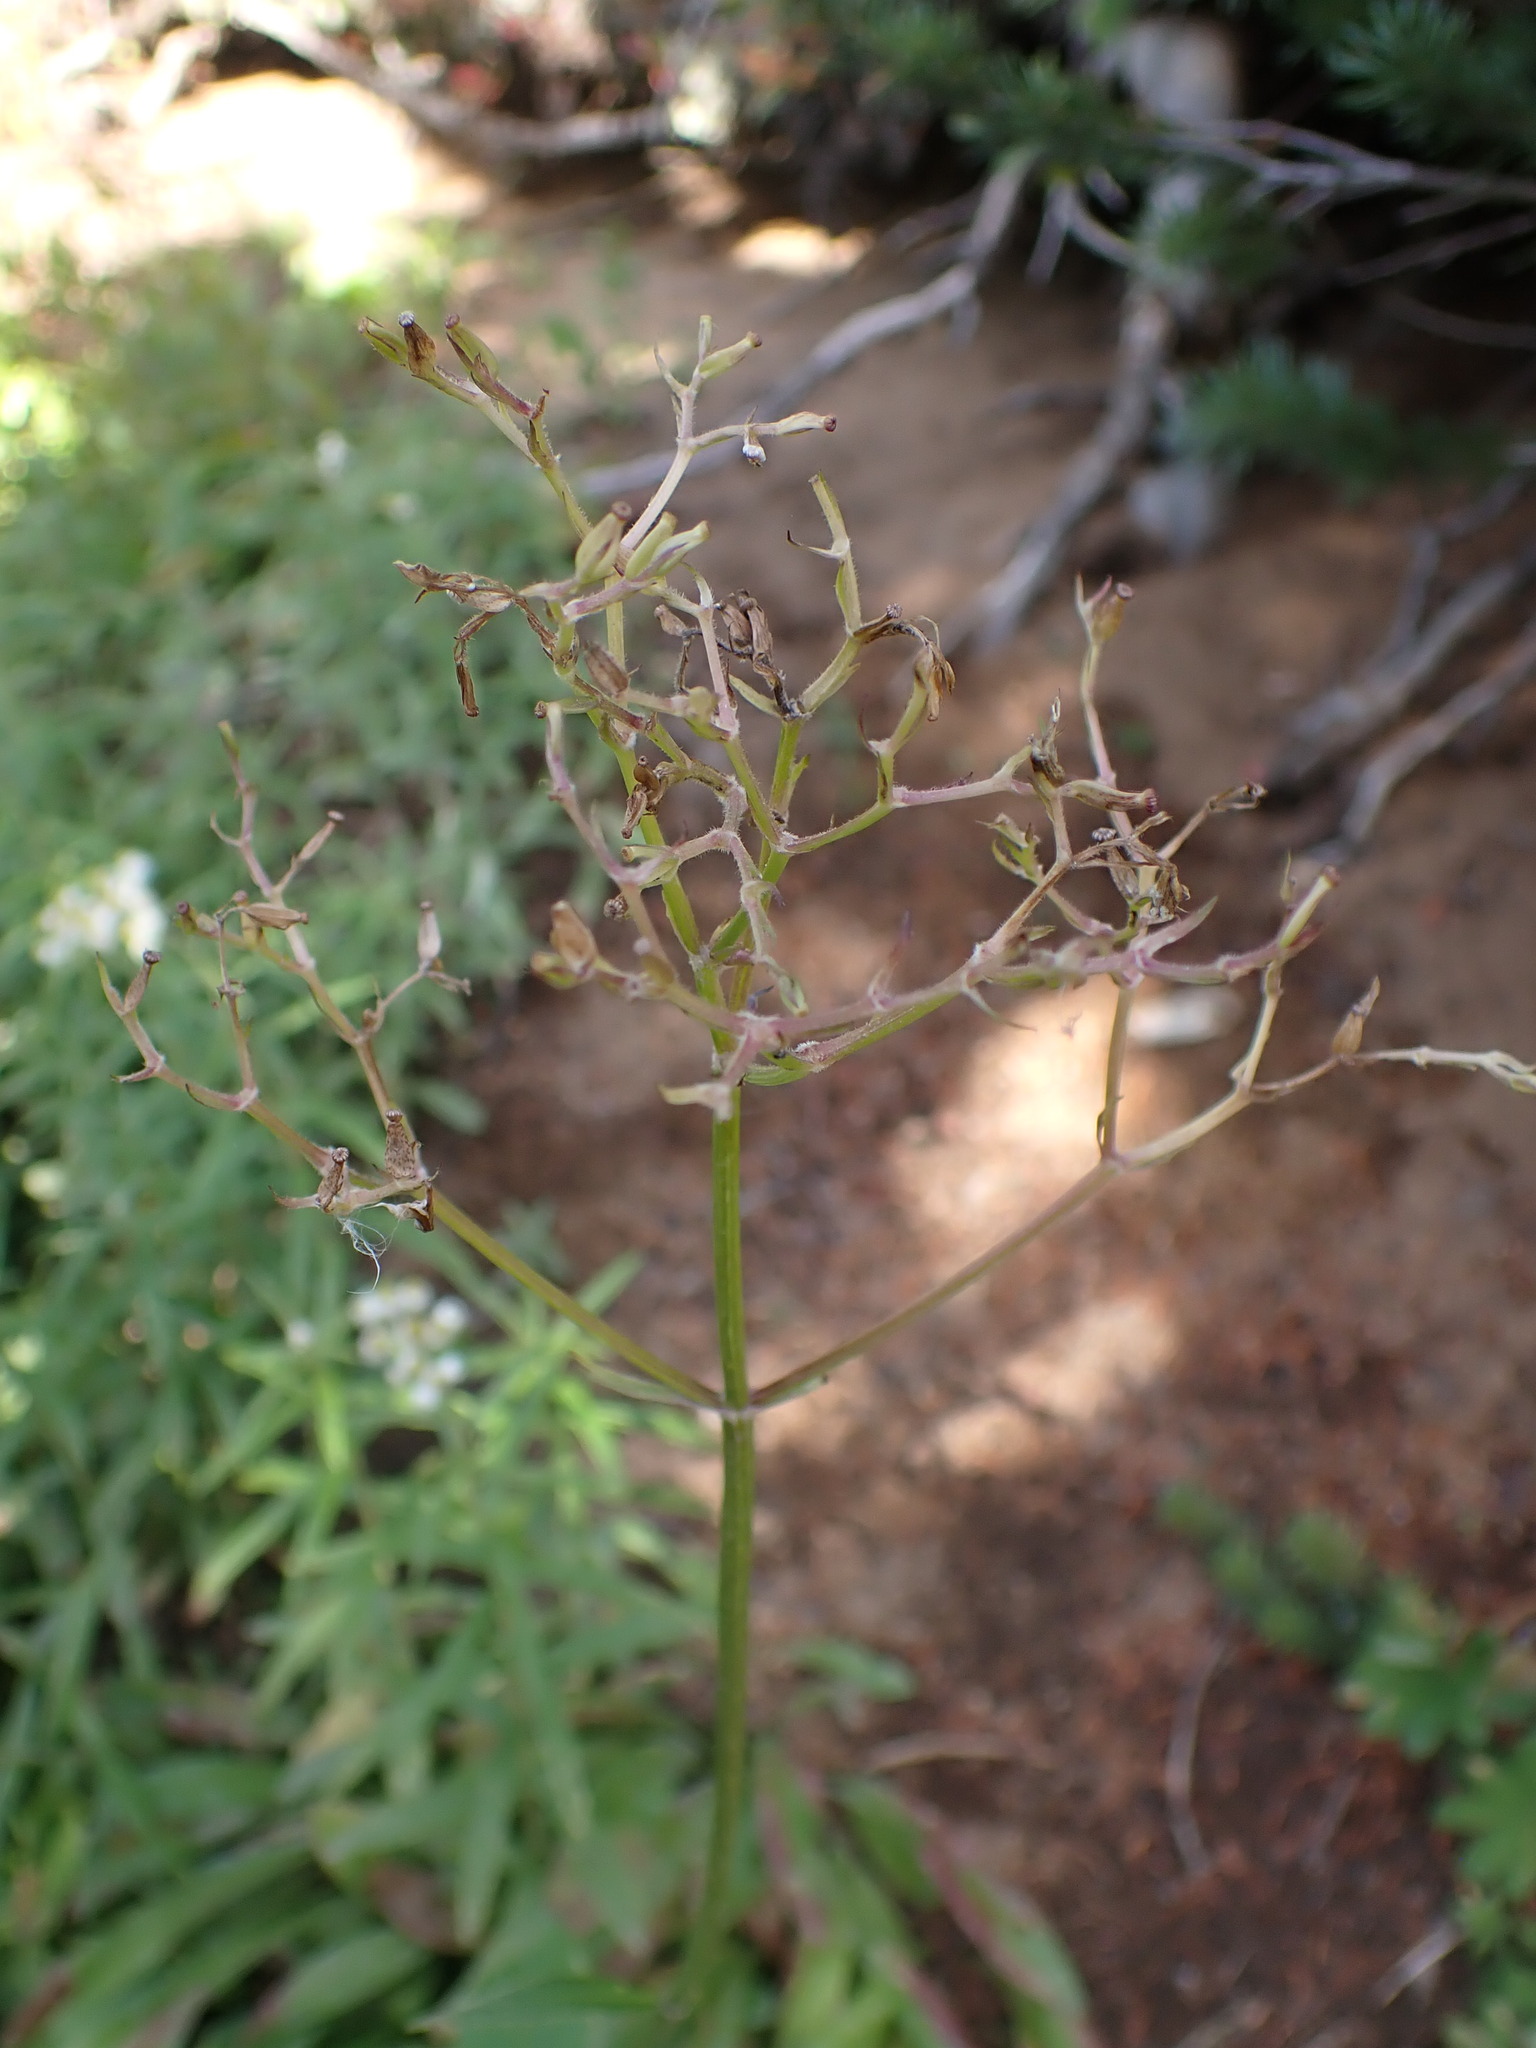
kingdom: Plantae
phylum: Tracheophyta
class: Magnoliopsida
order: Dipsacales
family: Caprifoliaceae
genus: Valeriana
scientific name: Valeriana sitchensis
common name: Pacific valerian
